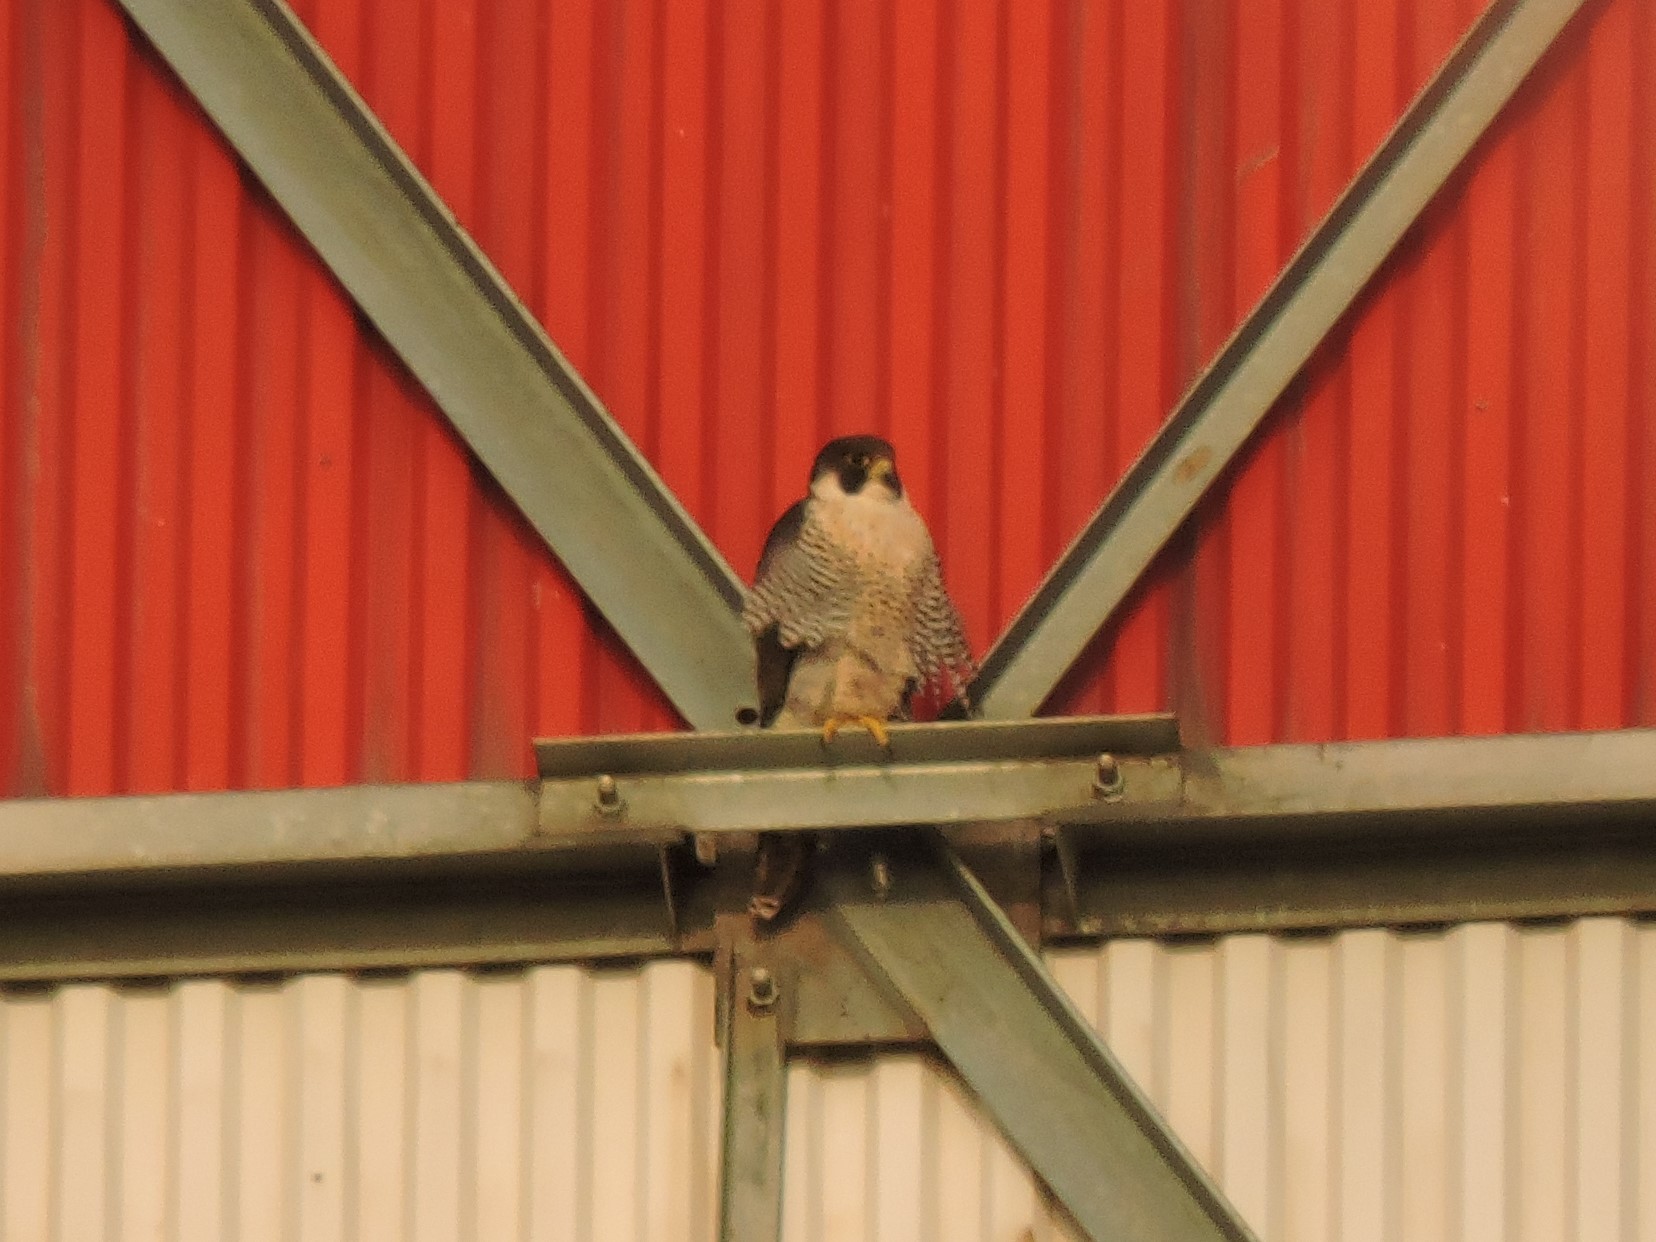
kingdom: Animalia
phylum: Chordata
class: Aves
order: Falconiformes
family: Falconidae
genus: Falco
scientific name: Falco peregrinus
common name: Peregrine falcon
